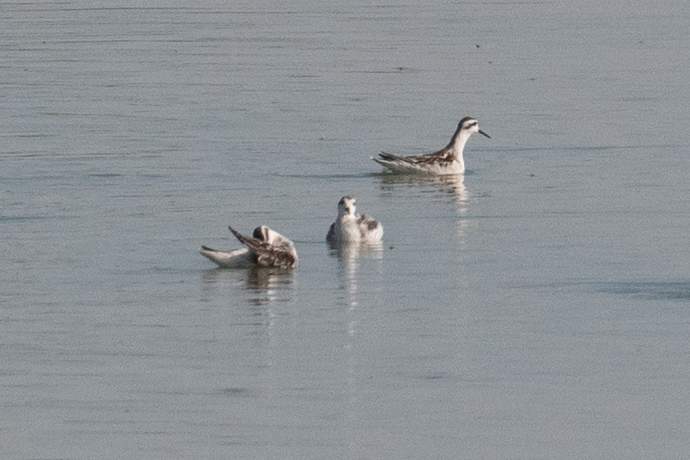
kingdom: Animalia
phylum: Chordata
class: Aves
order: Charadriiformes
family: Scolopacidae
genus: Phalaropus
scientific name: Phalaropus lobatus
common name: Red-necked phalarope
